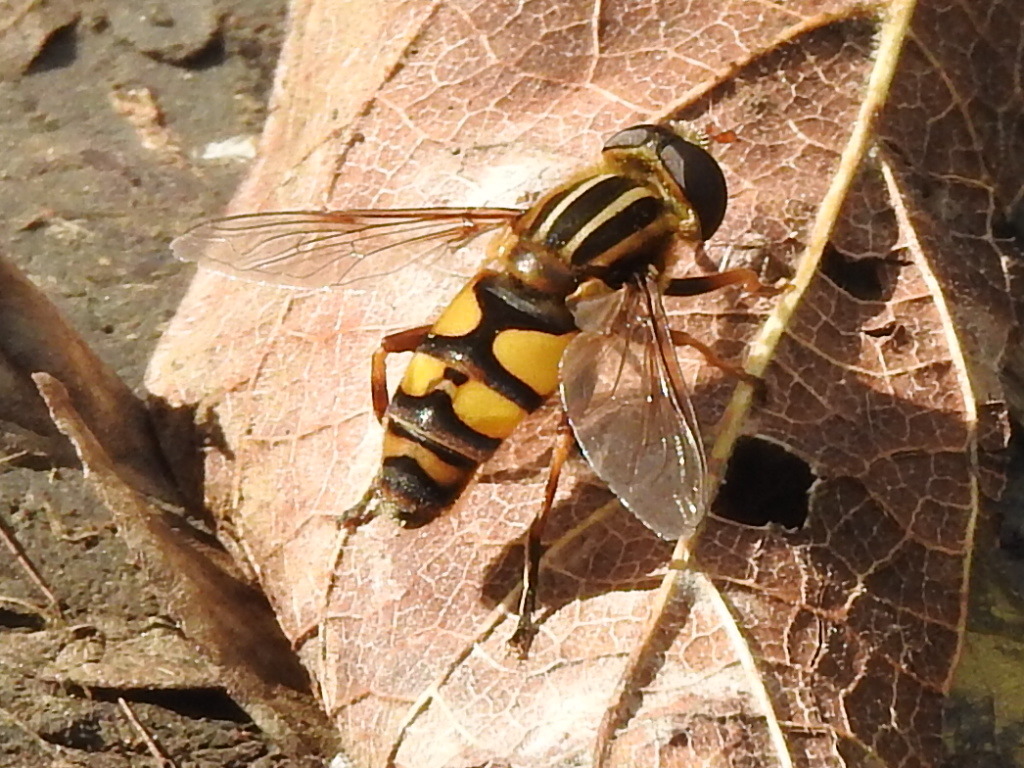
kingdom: Animalia
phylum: Arthropoda
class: Insecta
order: Diptera
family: Syrphidae
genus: Helophilus
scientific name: Helophilus fasciatus
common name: Narrow-headed marsh fly
